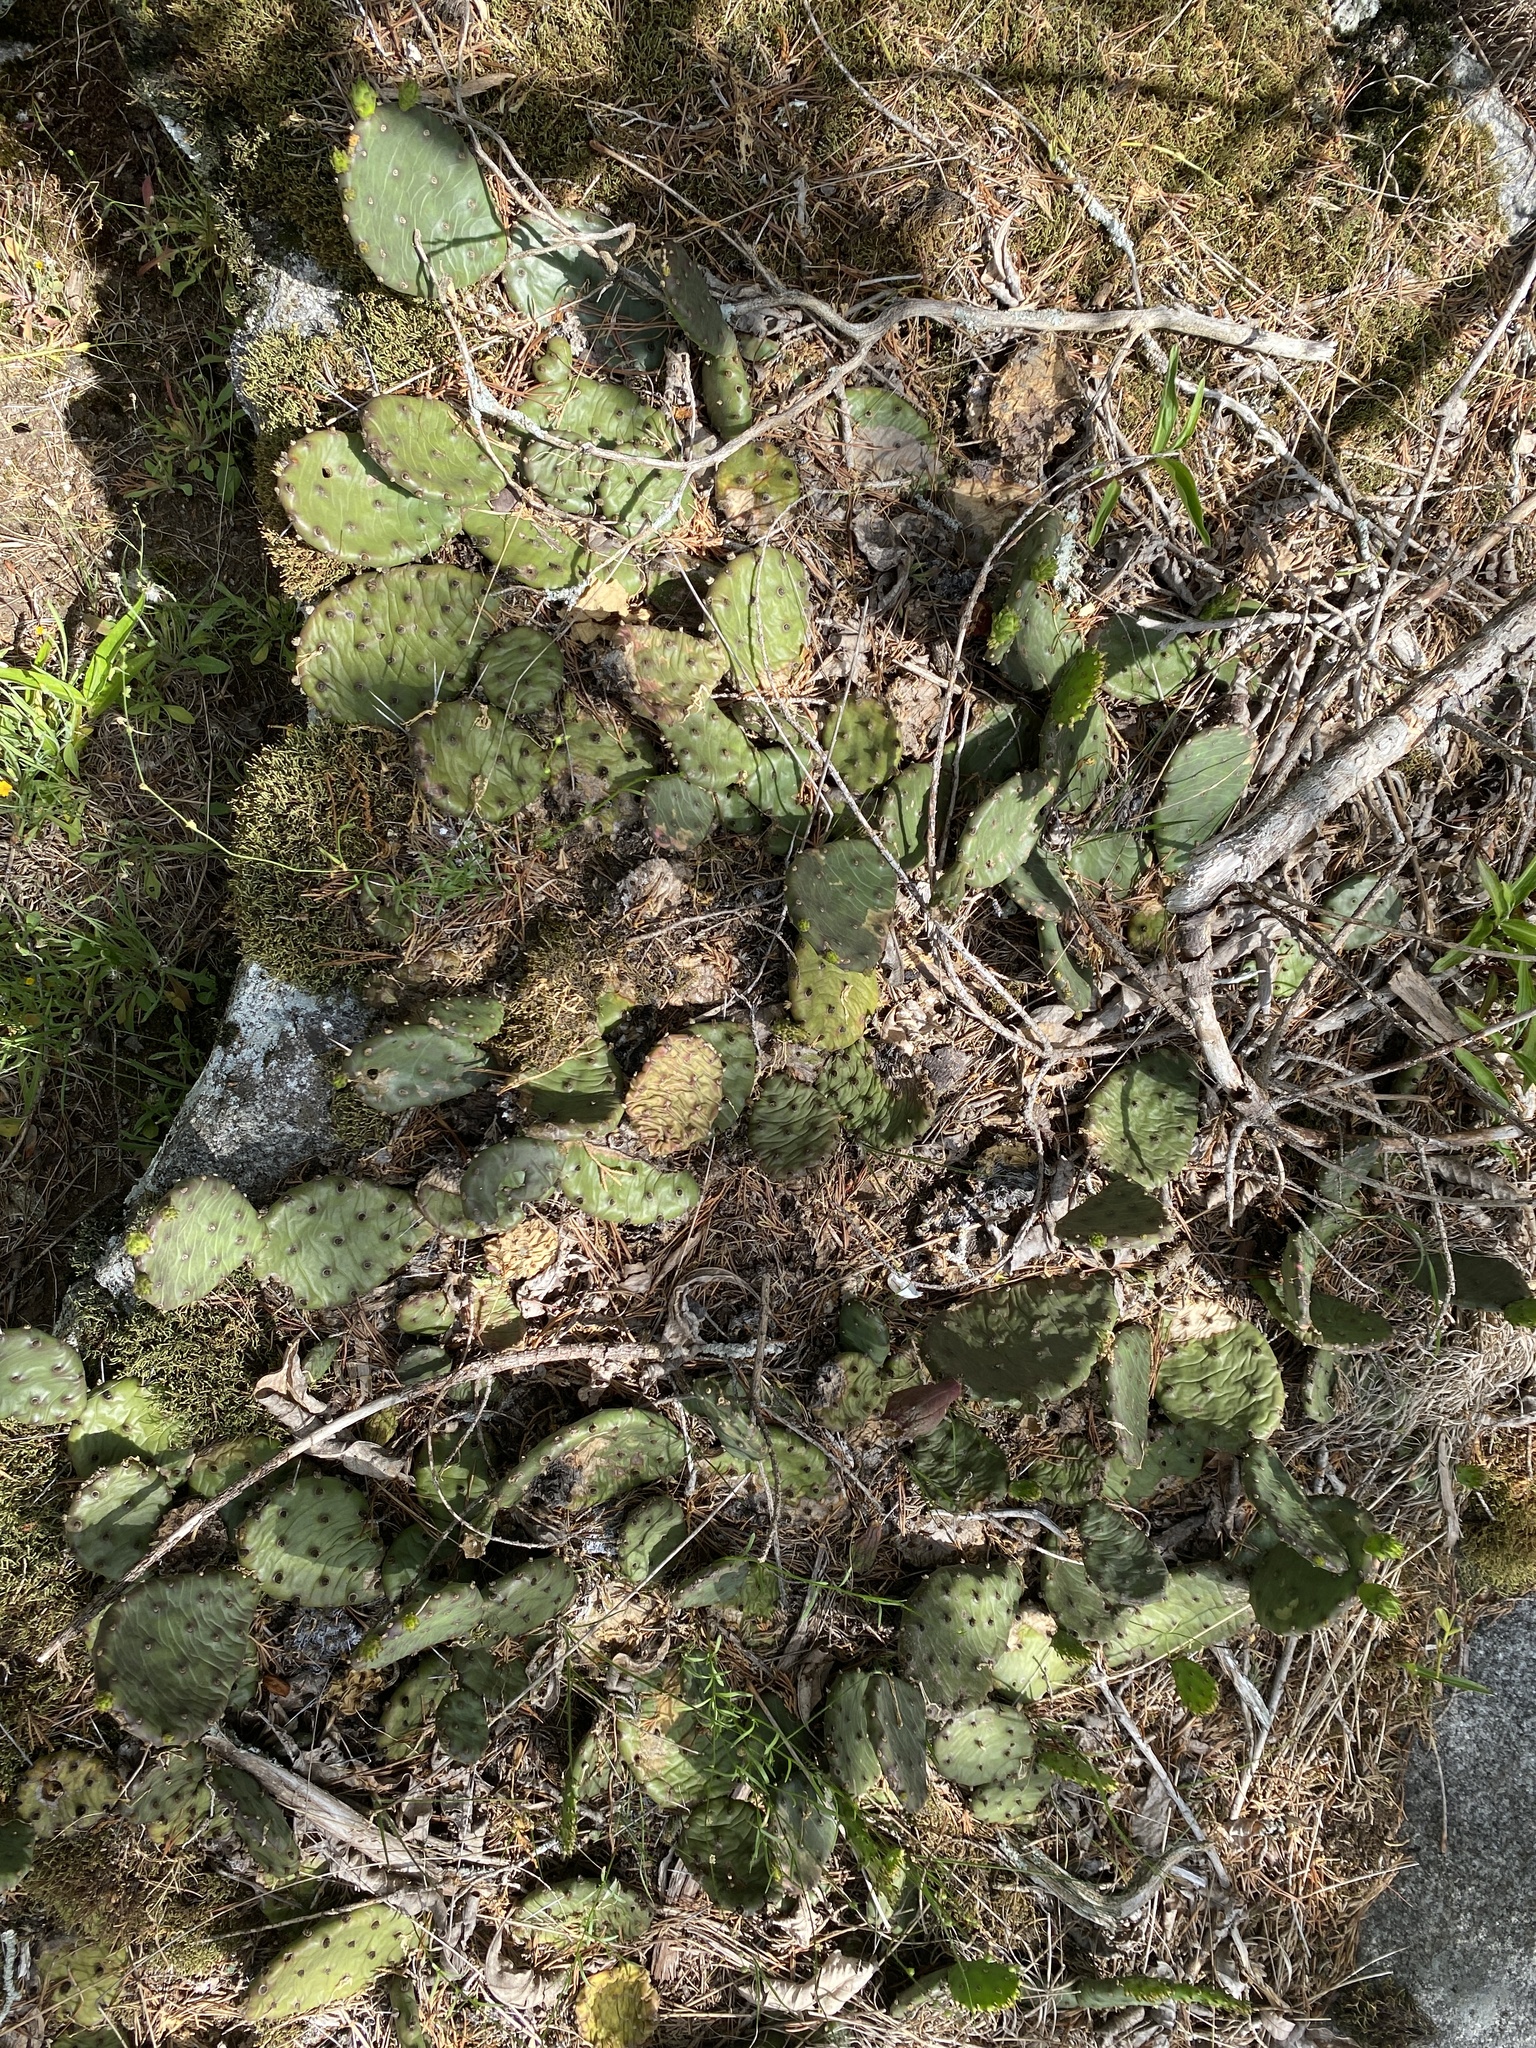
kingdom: Plantae
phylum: Tracheophyta
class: Magnoliopsida
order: Caryophyllales
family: Cactaceae
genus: Opuntia
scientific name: Opuntia mesacantha
